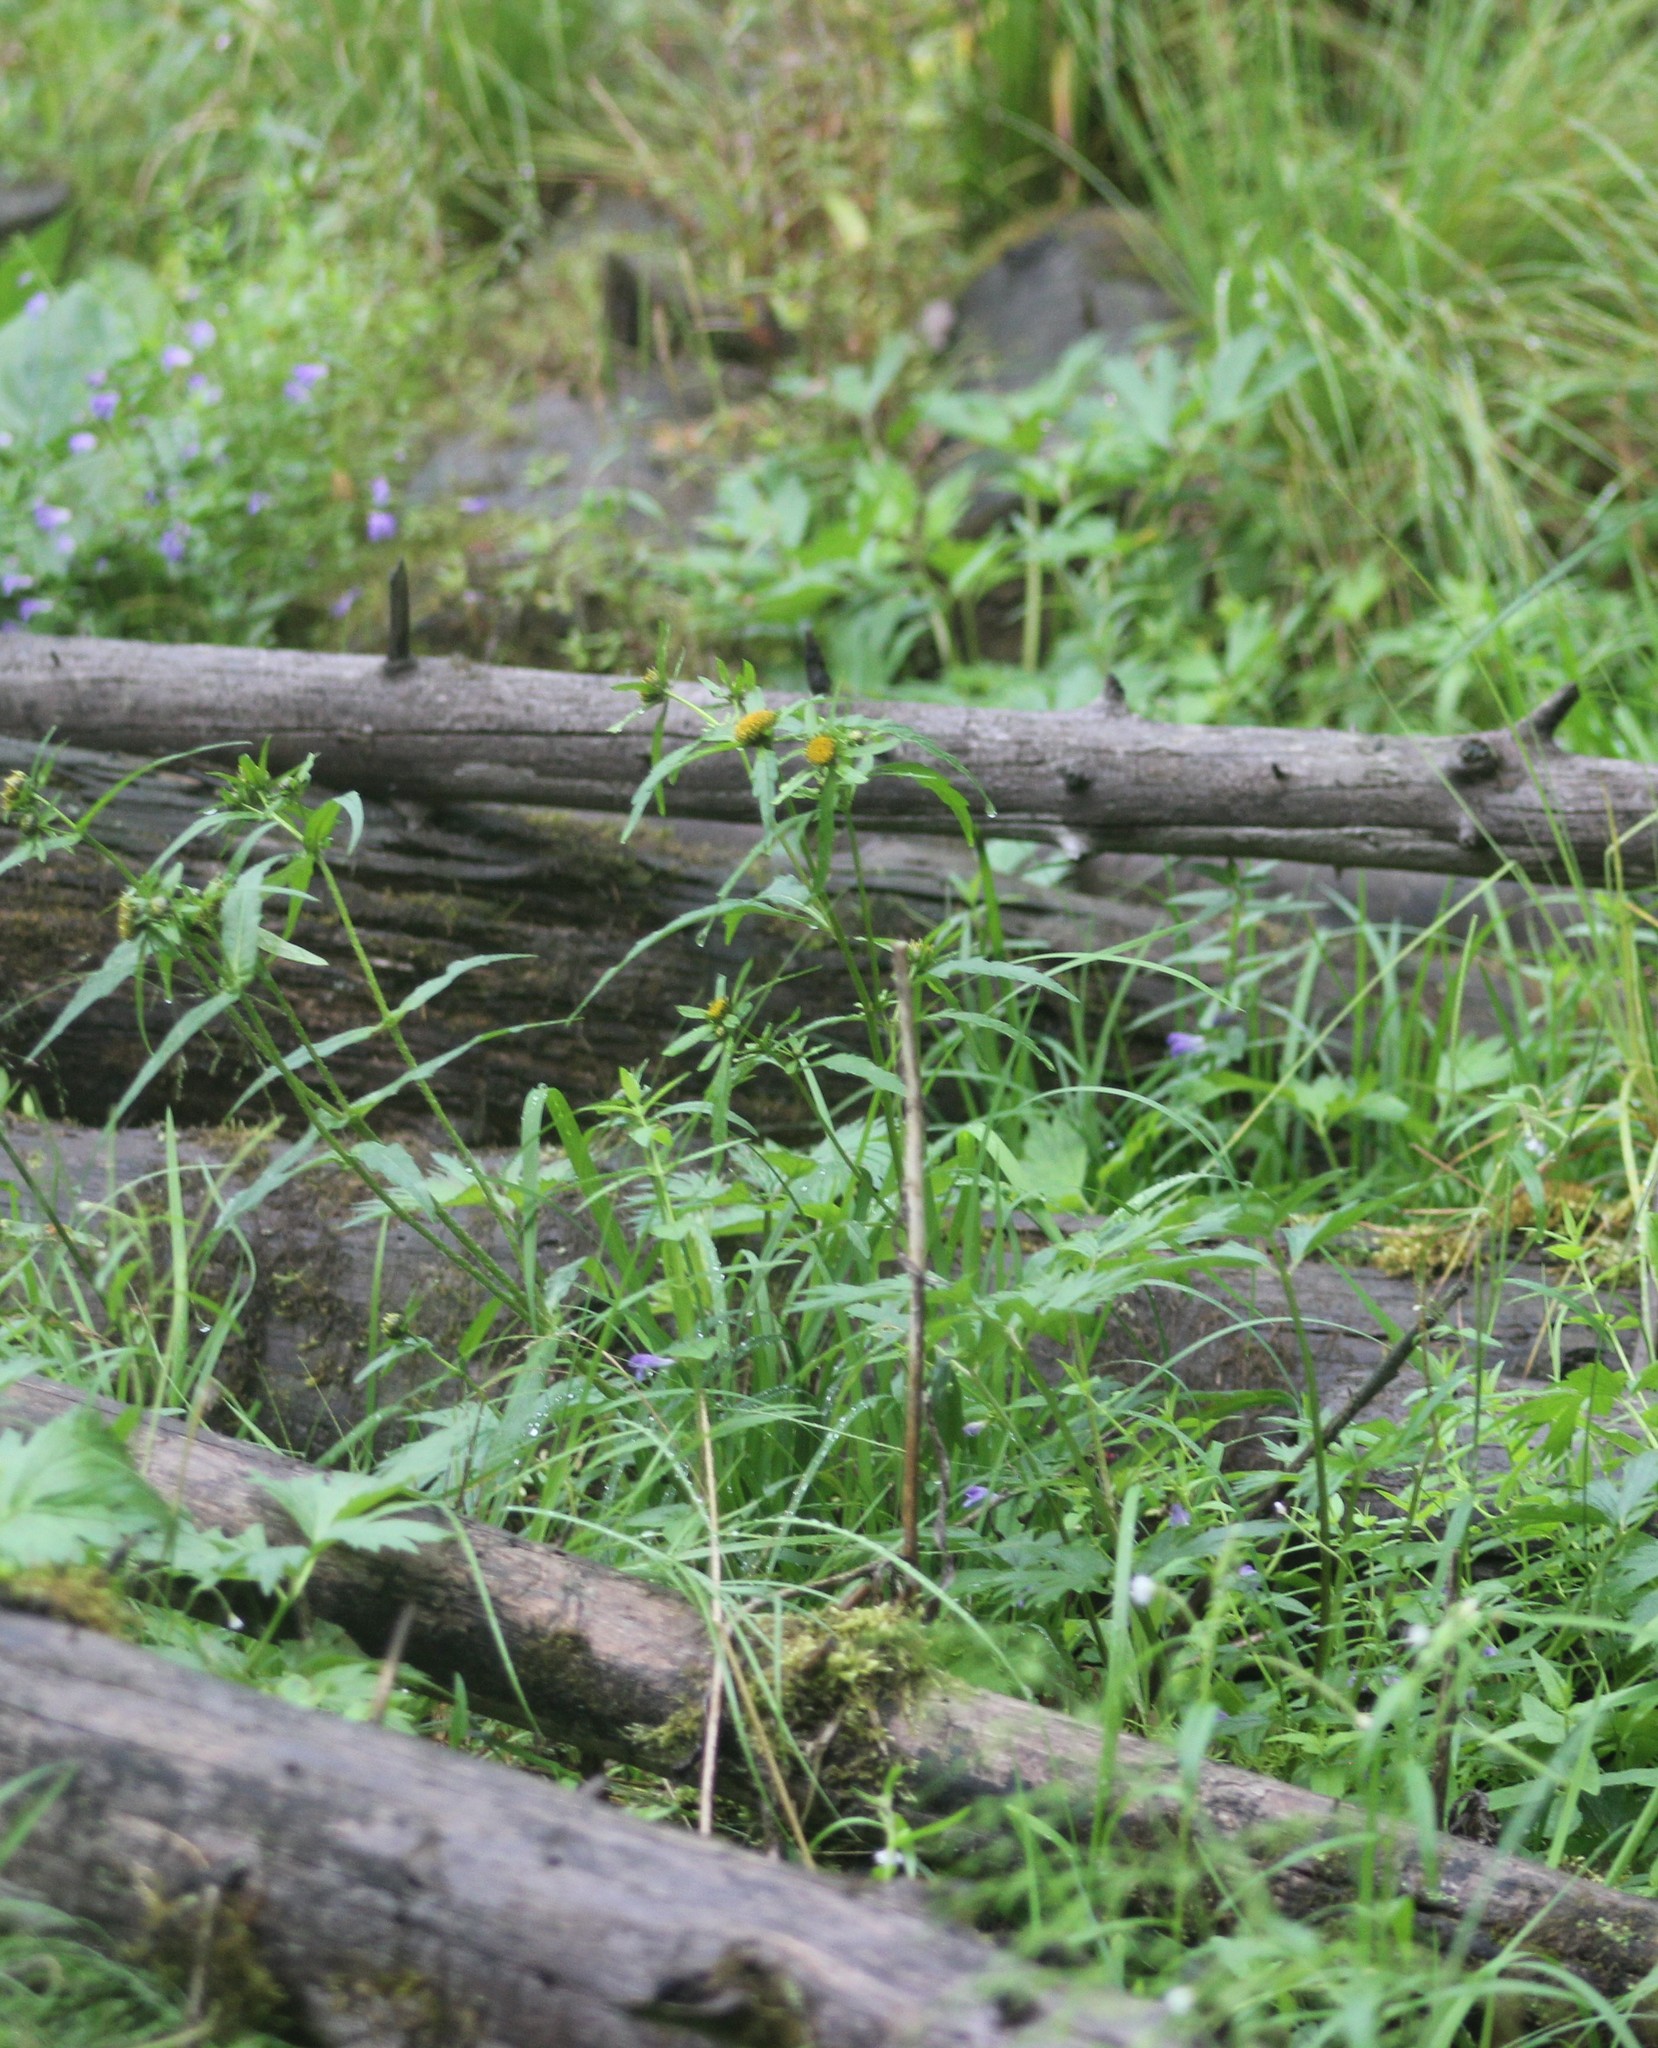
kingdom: Plantae
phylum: Tracheophyta
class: Magnoliopsida
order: Asterales
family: Asteraceae
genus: Bidens
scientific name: Bidens tripartita
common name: Trifid bur-marigold
